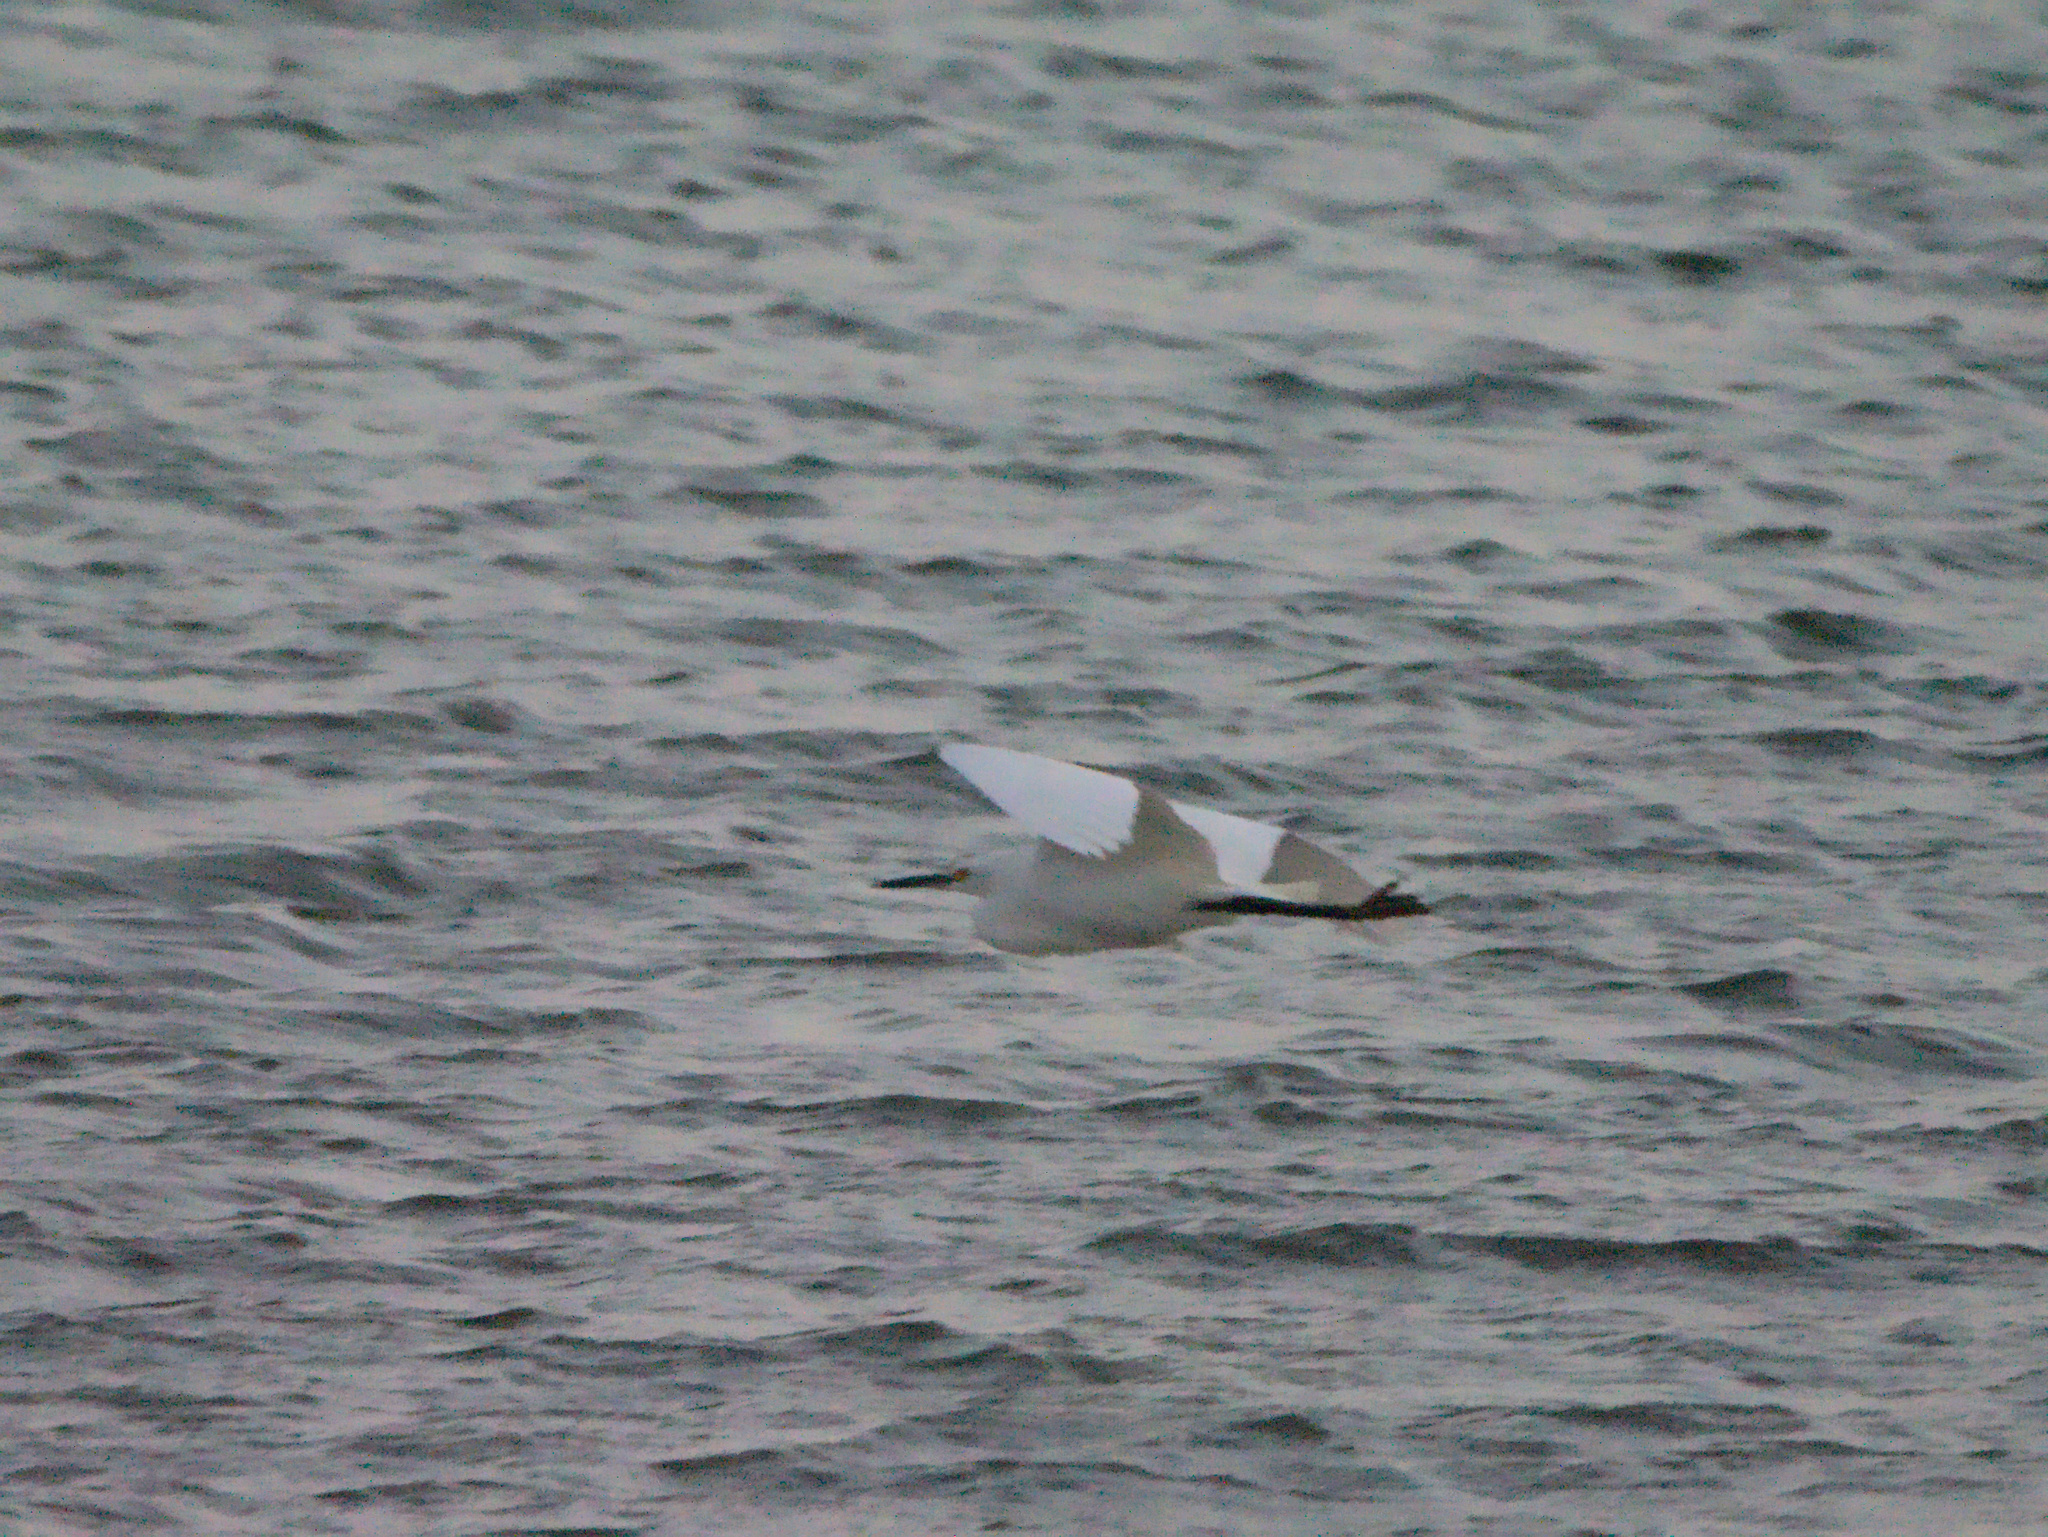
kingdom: Animalia
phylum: Chordata
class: Aves
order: Pelecaniformes
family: Ardeidae
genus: Egretta
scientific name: Egretta thula
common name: Snowy egret
